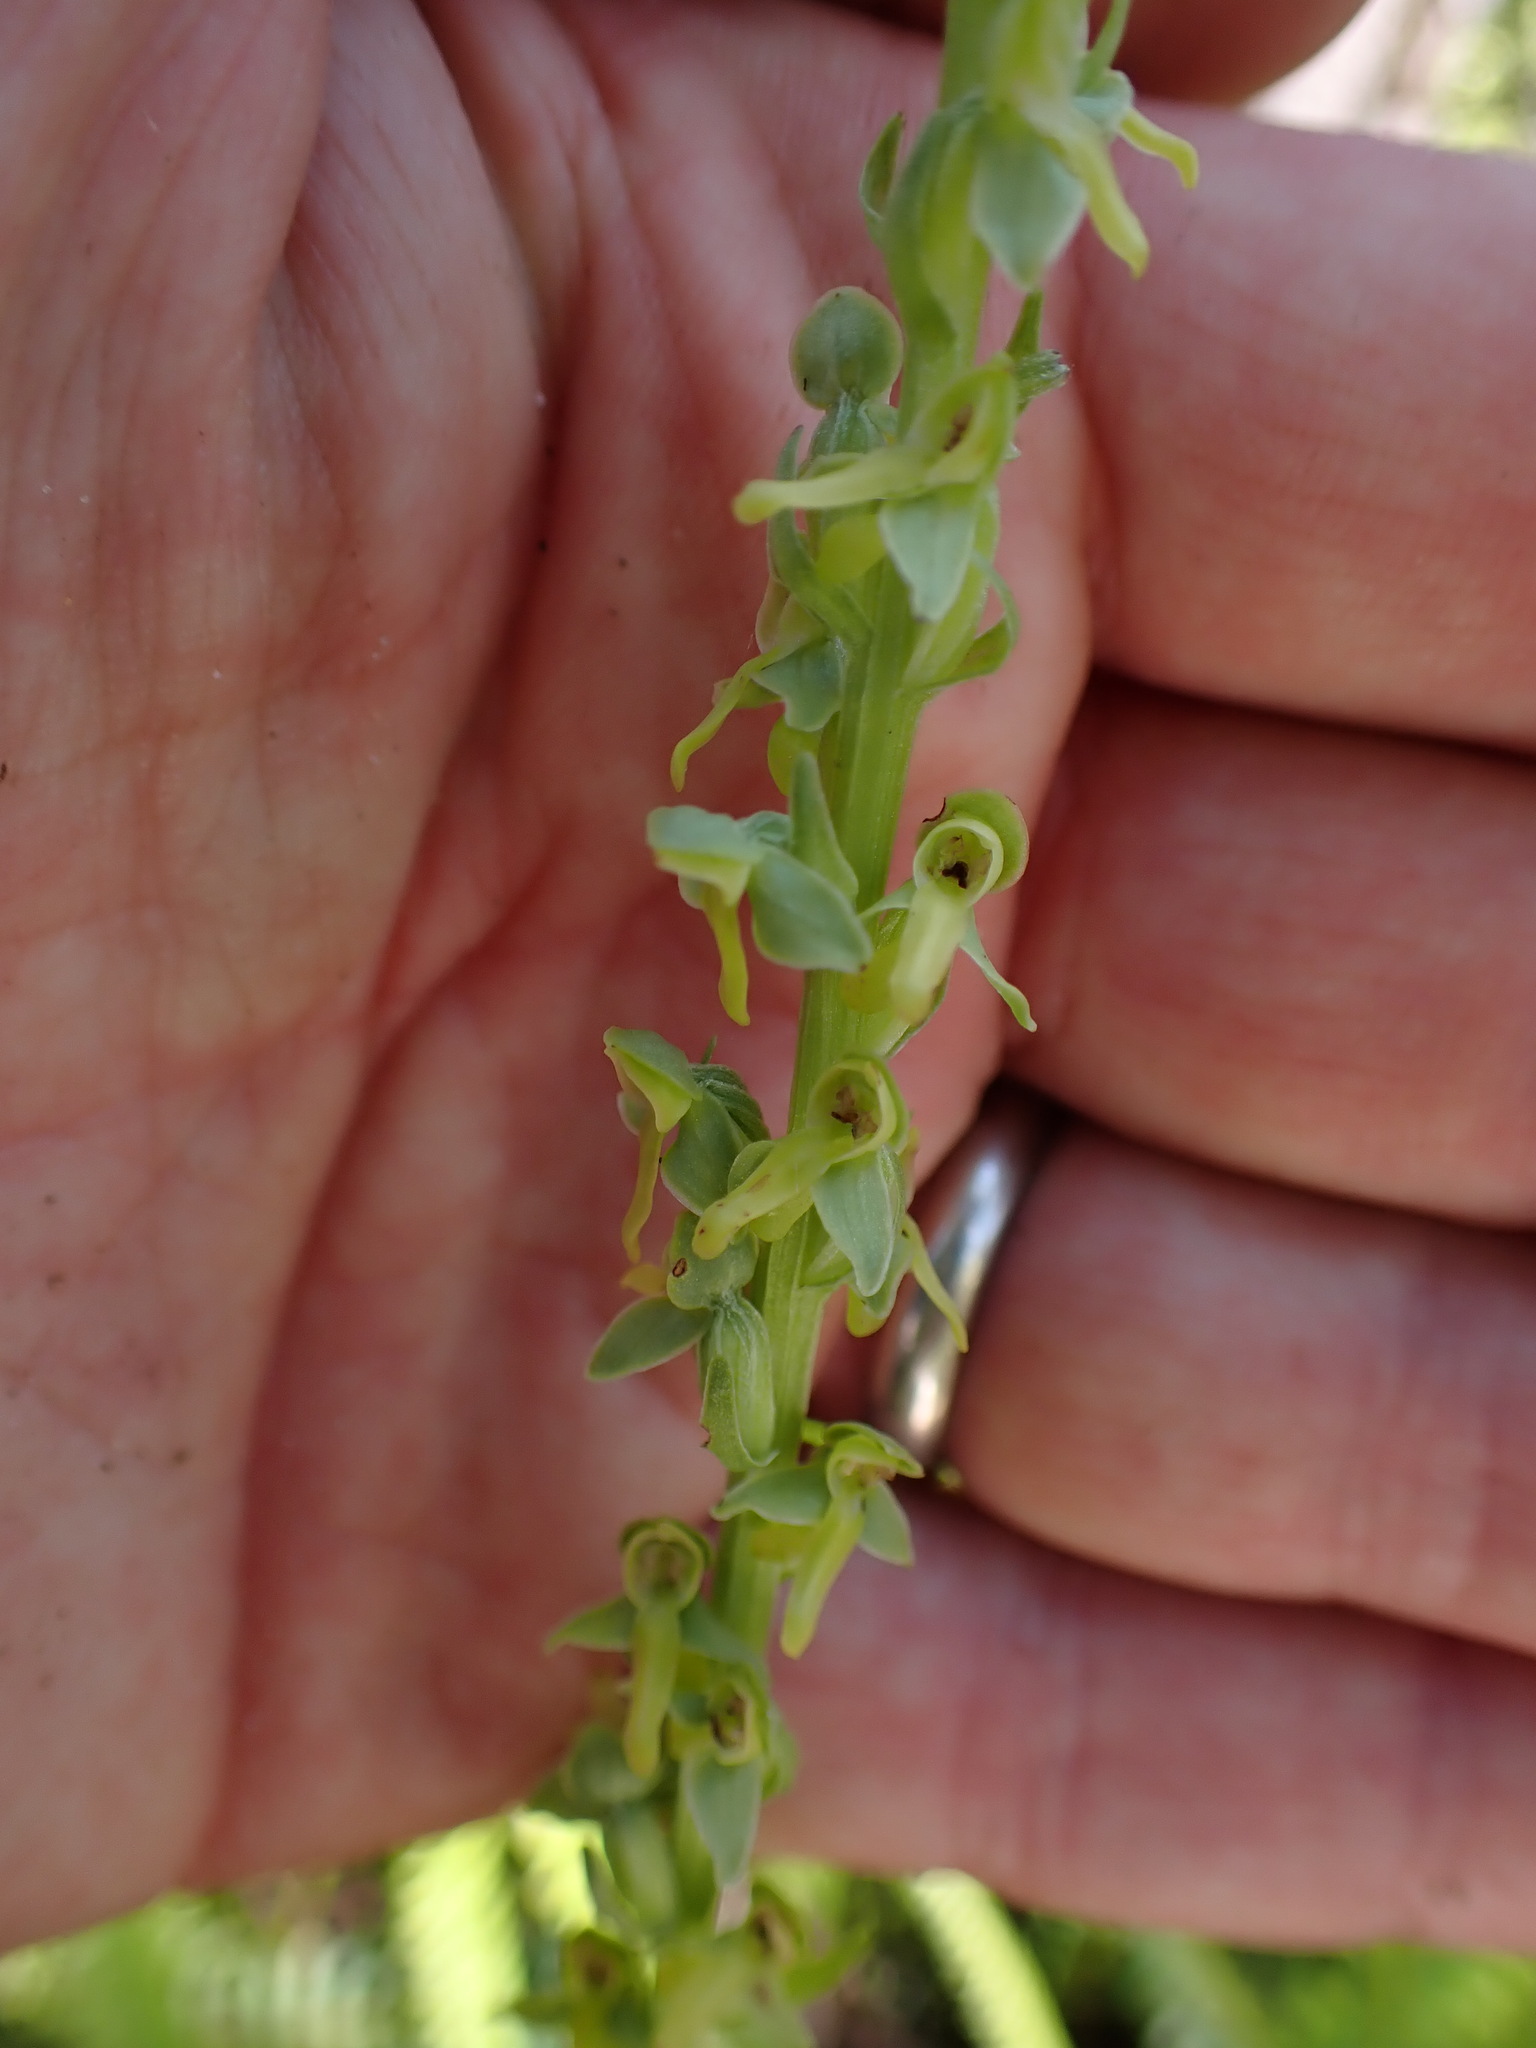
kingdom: Plantae
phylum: Tracheophyta
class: Liliopsida
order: Asparagales
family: Orchidaceae
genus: Platanthera
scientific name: Platanthera stricta
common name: Slender bog orchid
